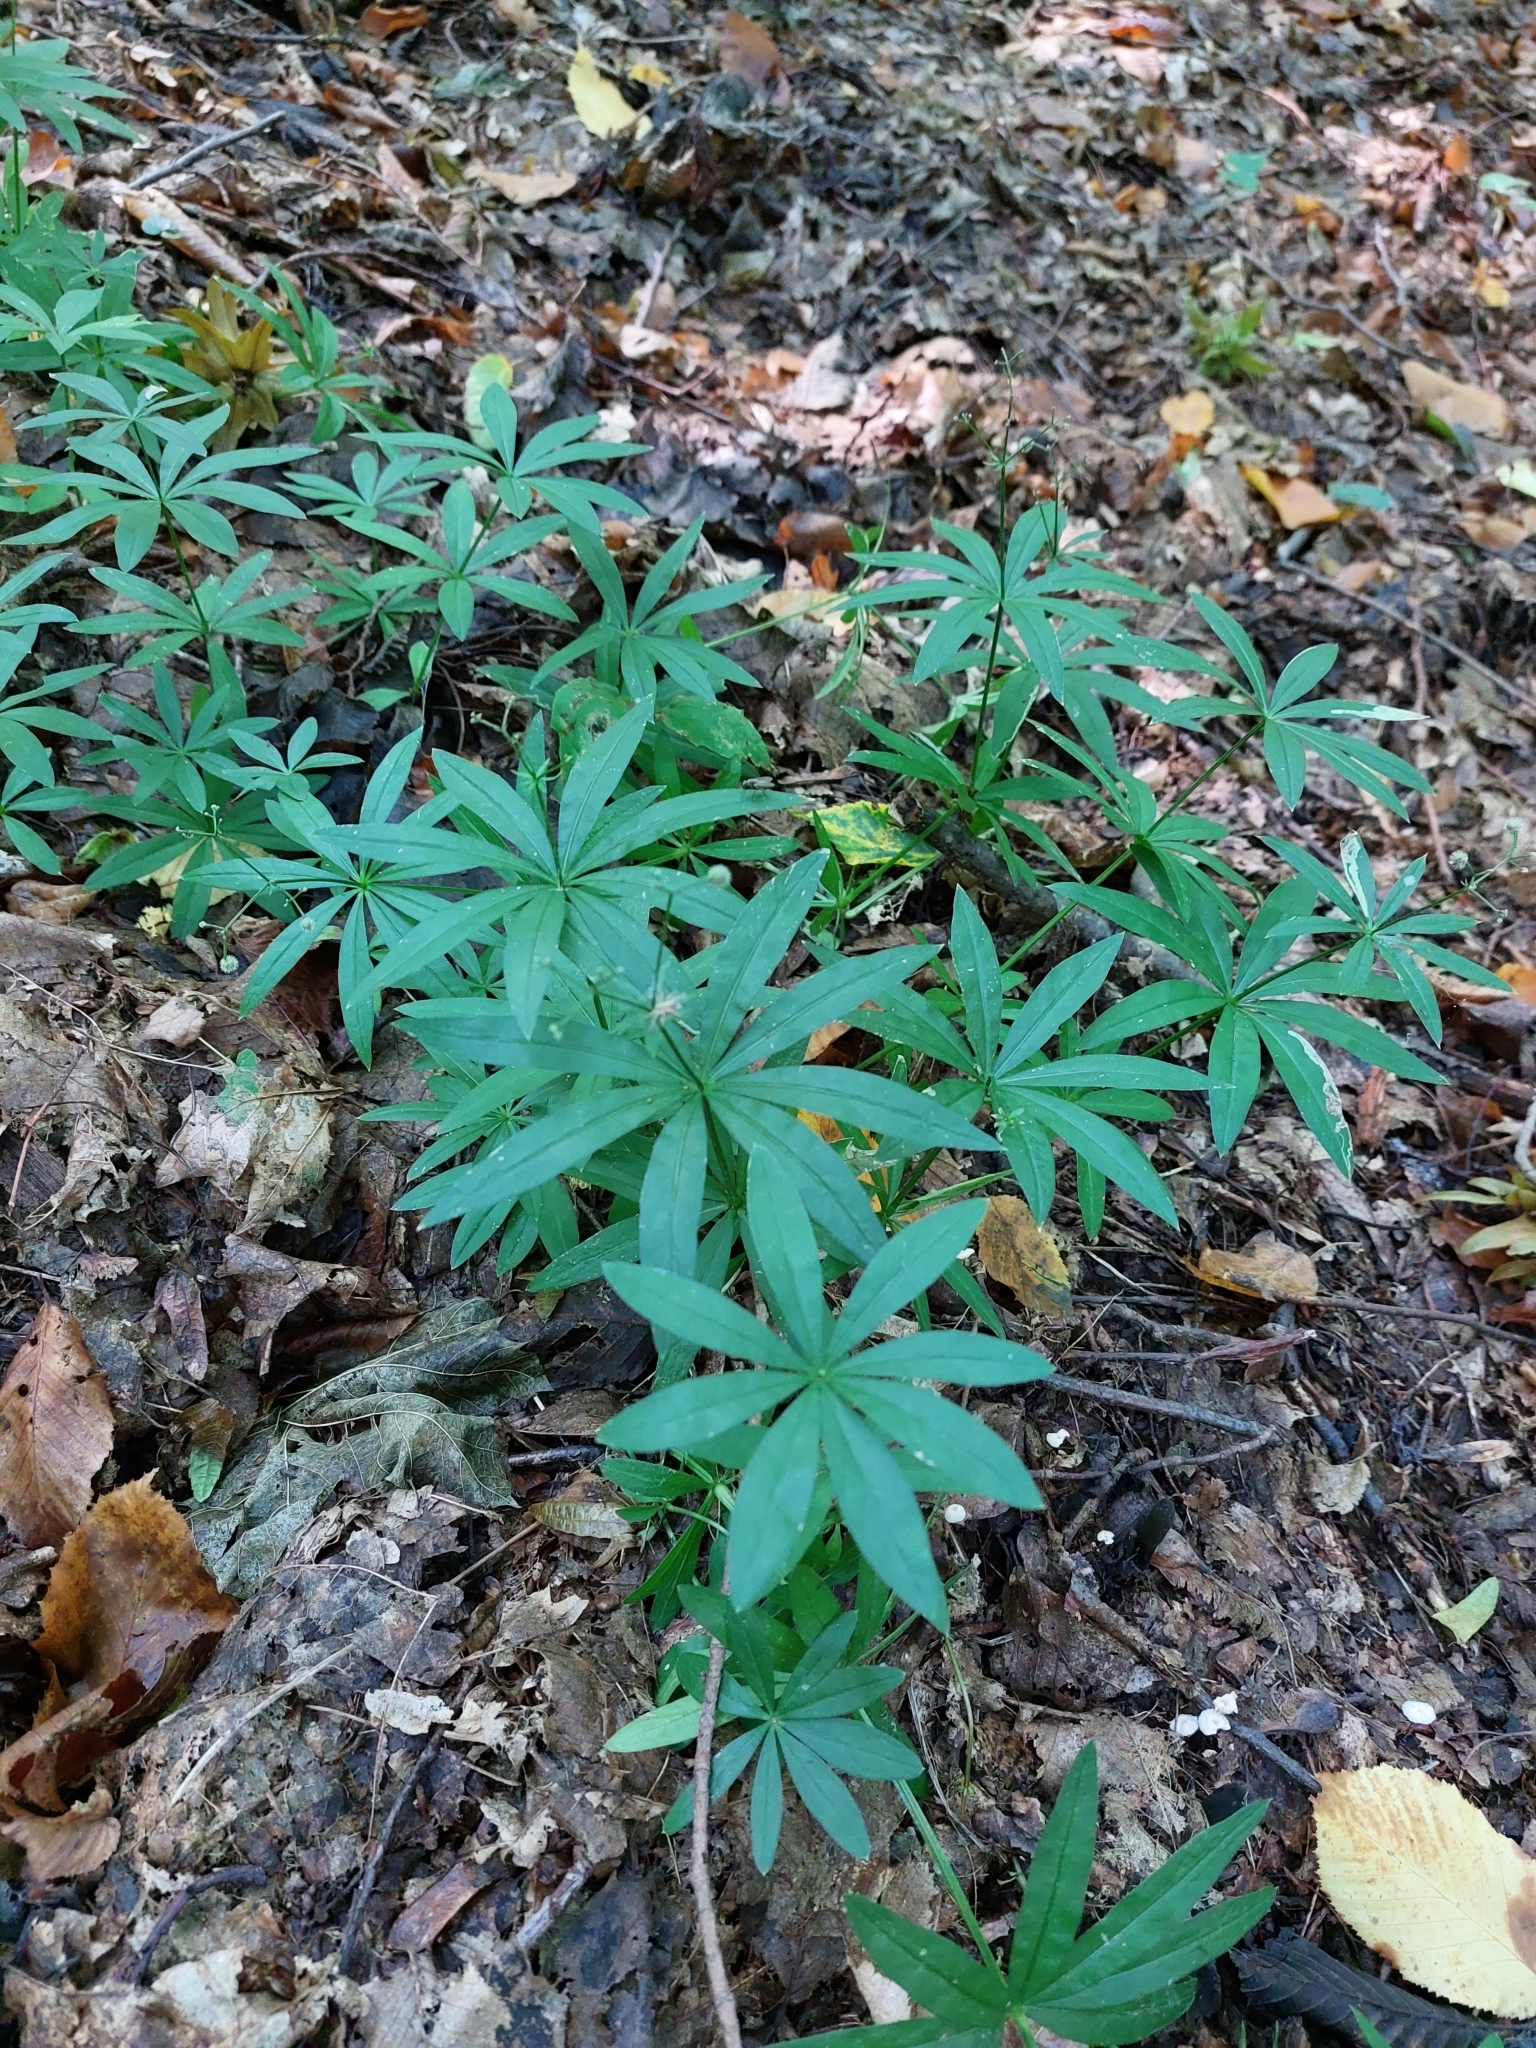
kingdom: Plantae
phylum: Tracheophyta
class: Magnoliopsida
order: Gentianales
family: Rubiaceae
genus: Galium
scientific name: Galium odoratum
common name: Sweet woodruff
